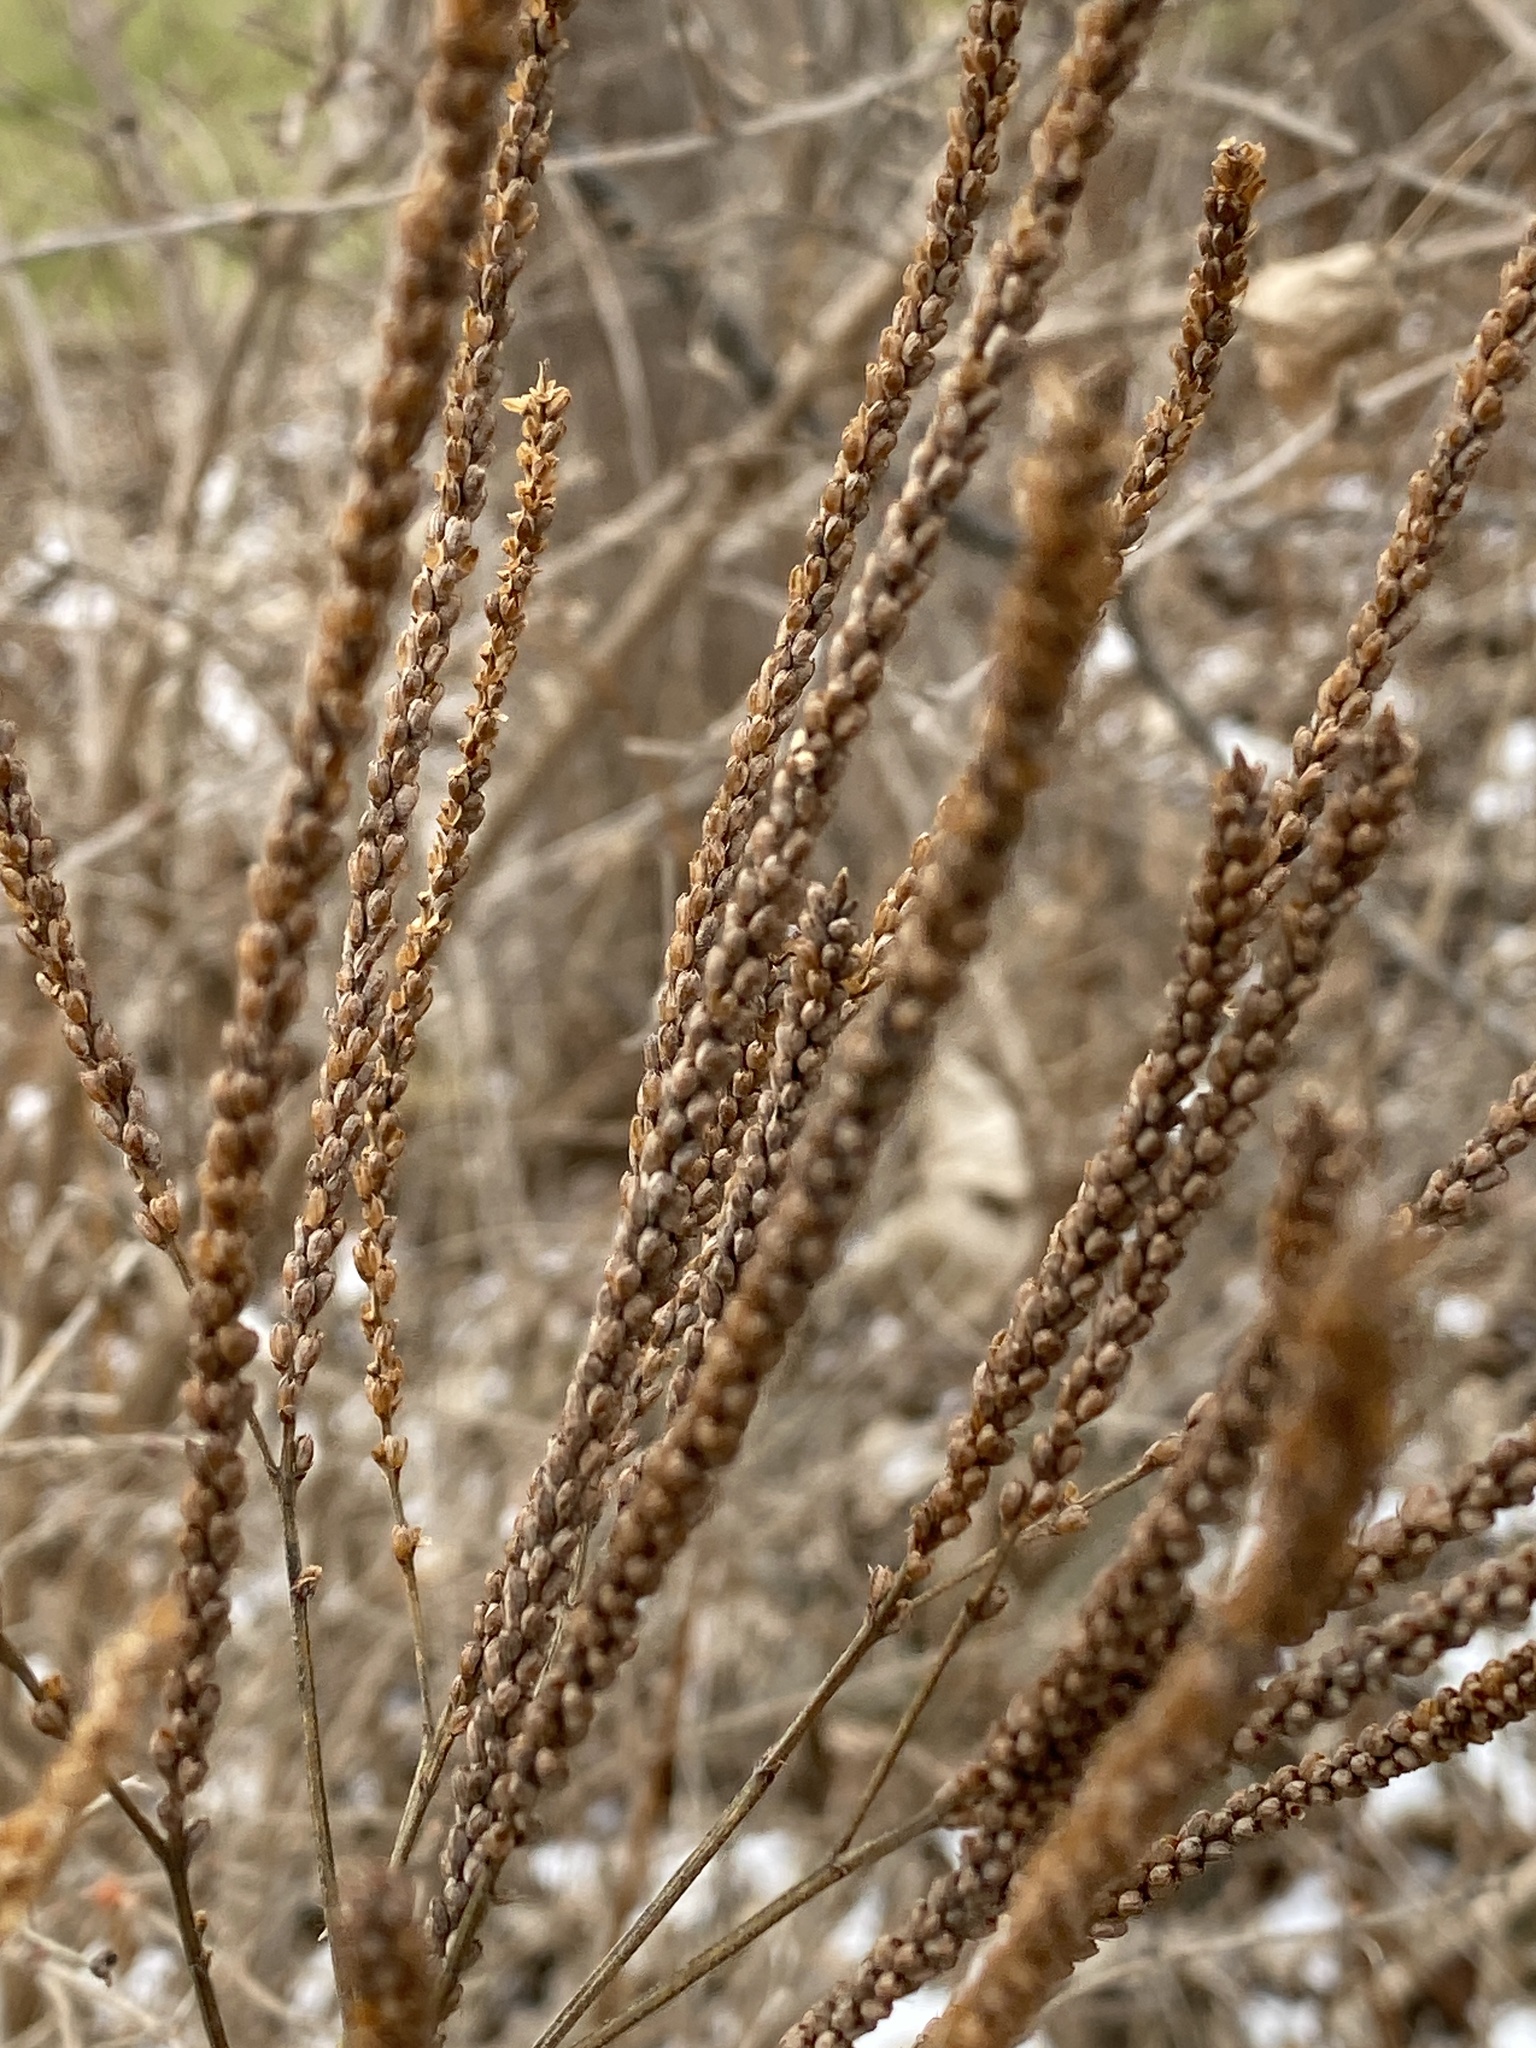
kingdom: Plantae
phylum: Tracheophyta
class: Magnoliopsida
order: Lamiales
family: Verbenaceae
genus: Verbena
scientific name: Verbena hastata
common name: American blue vervain
